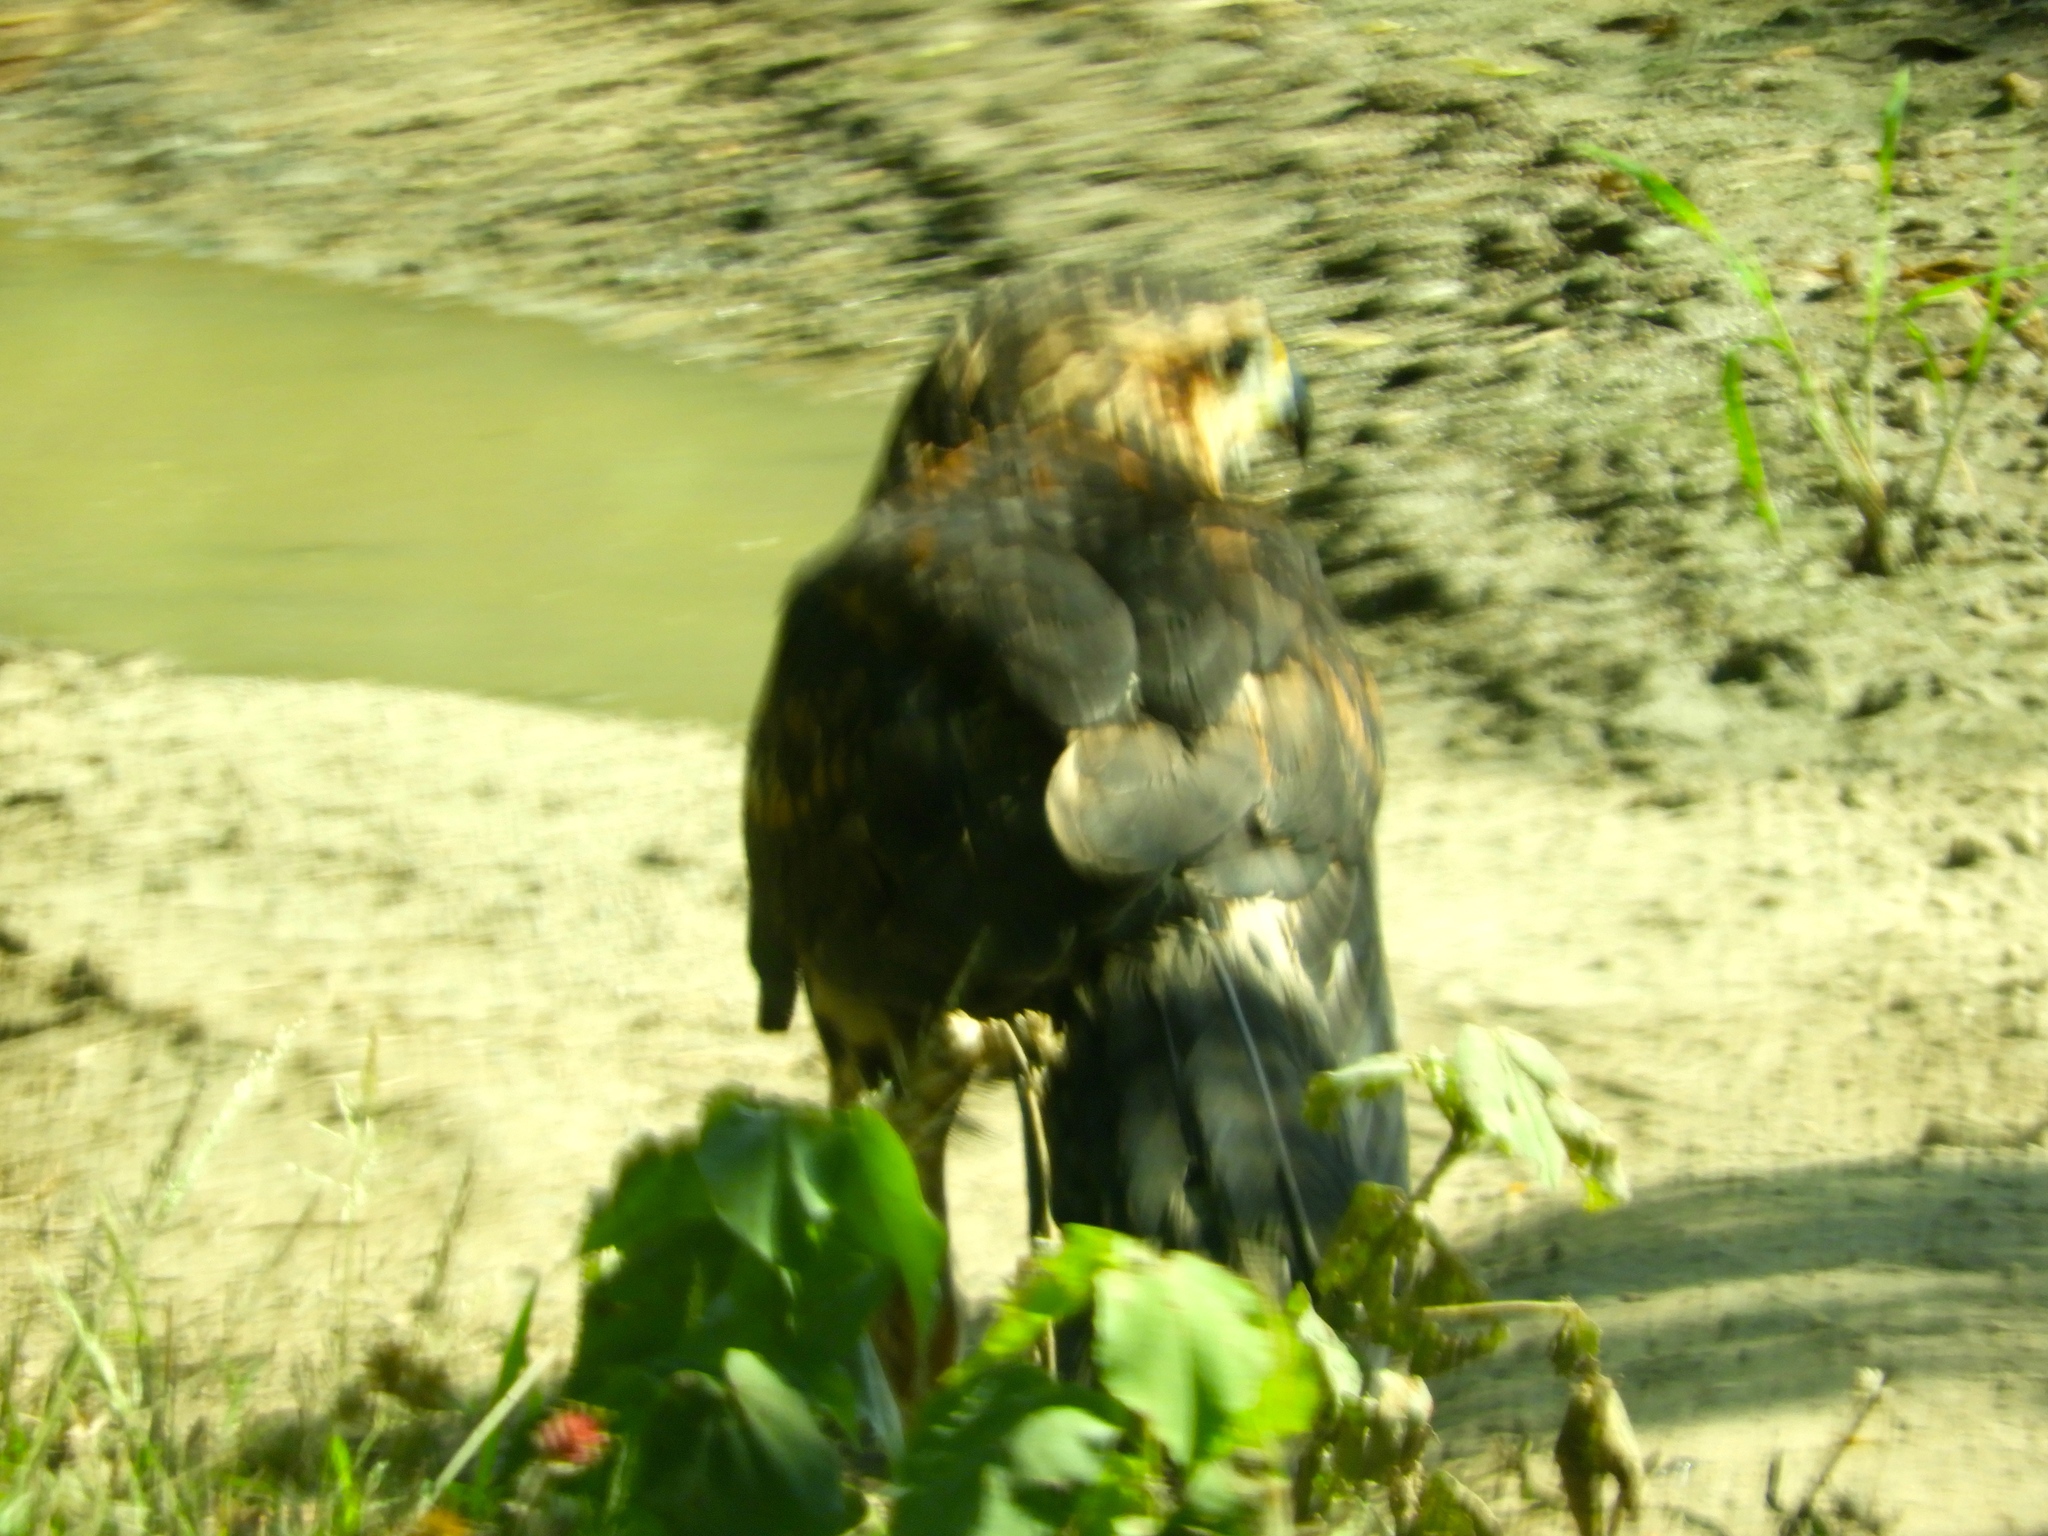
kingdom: Animalia
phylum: Chordata
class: Aves
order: Accipitriformes
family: Accipitridae
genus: Buteogallus
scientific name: Buteogallus anthracinus
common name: Common black hawk
